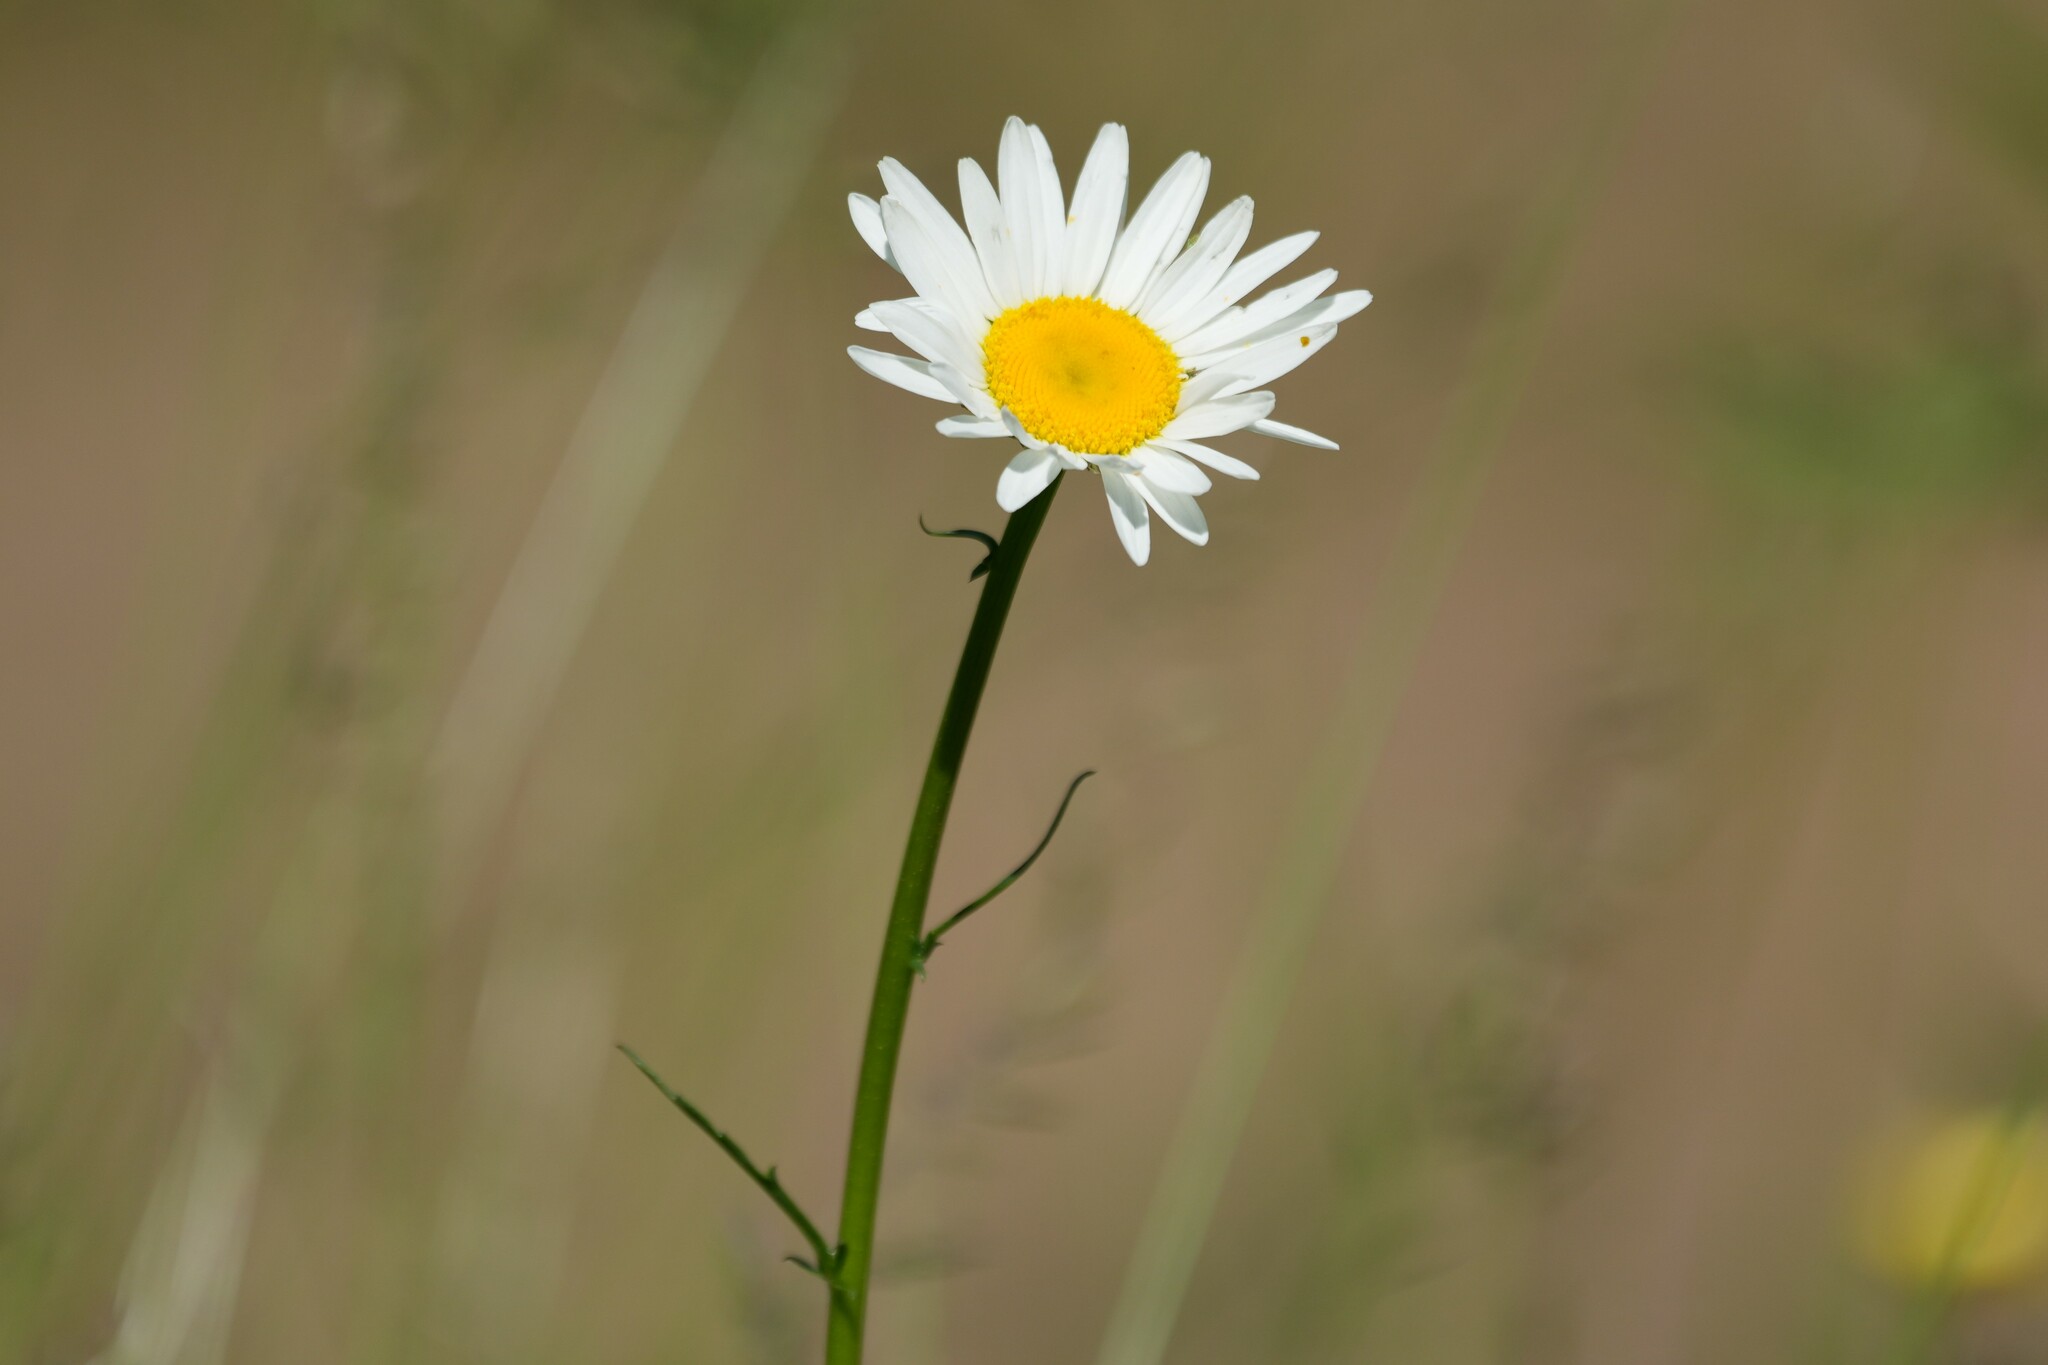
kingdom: Plantae
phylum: Tracheophyta
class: Magnoliopsida
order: Asterales
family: Asteraceae
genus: Leucanthemum
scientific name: Leucanthemum vulgare
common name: Oxeye daisy
